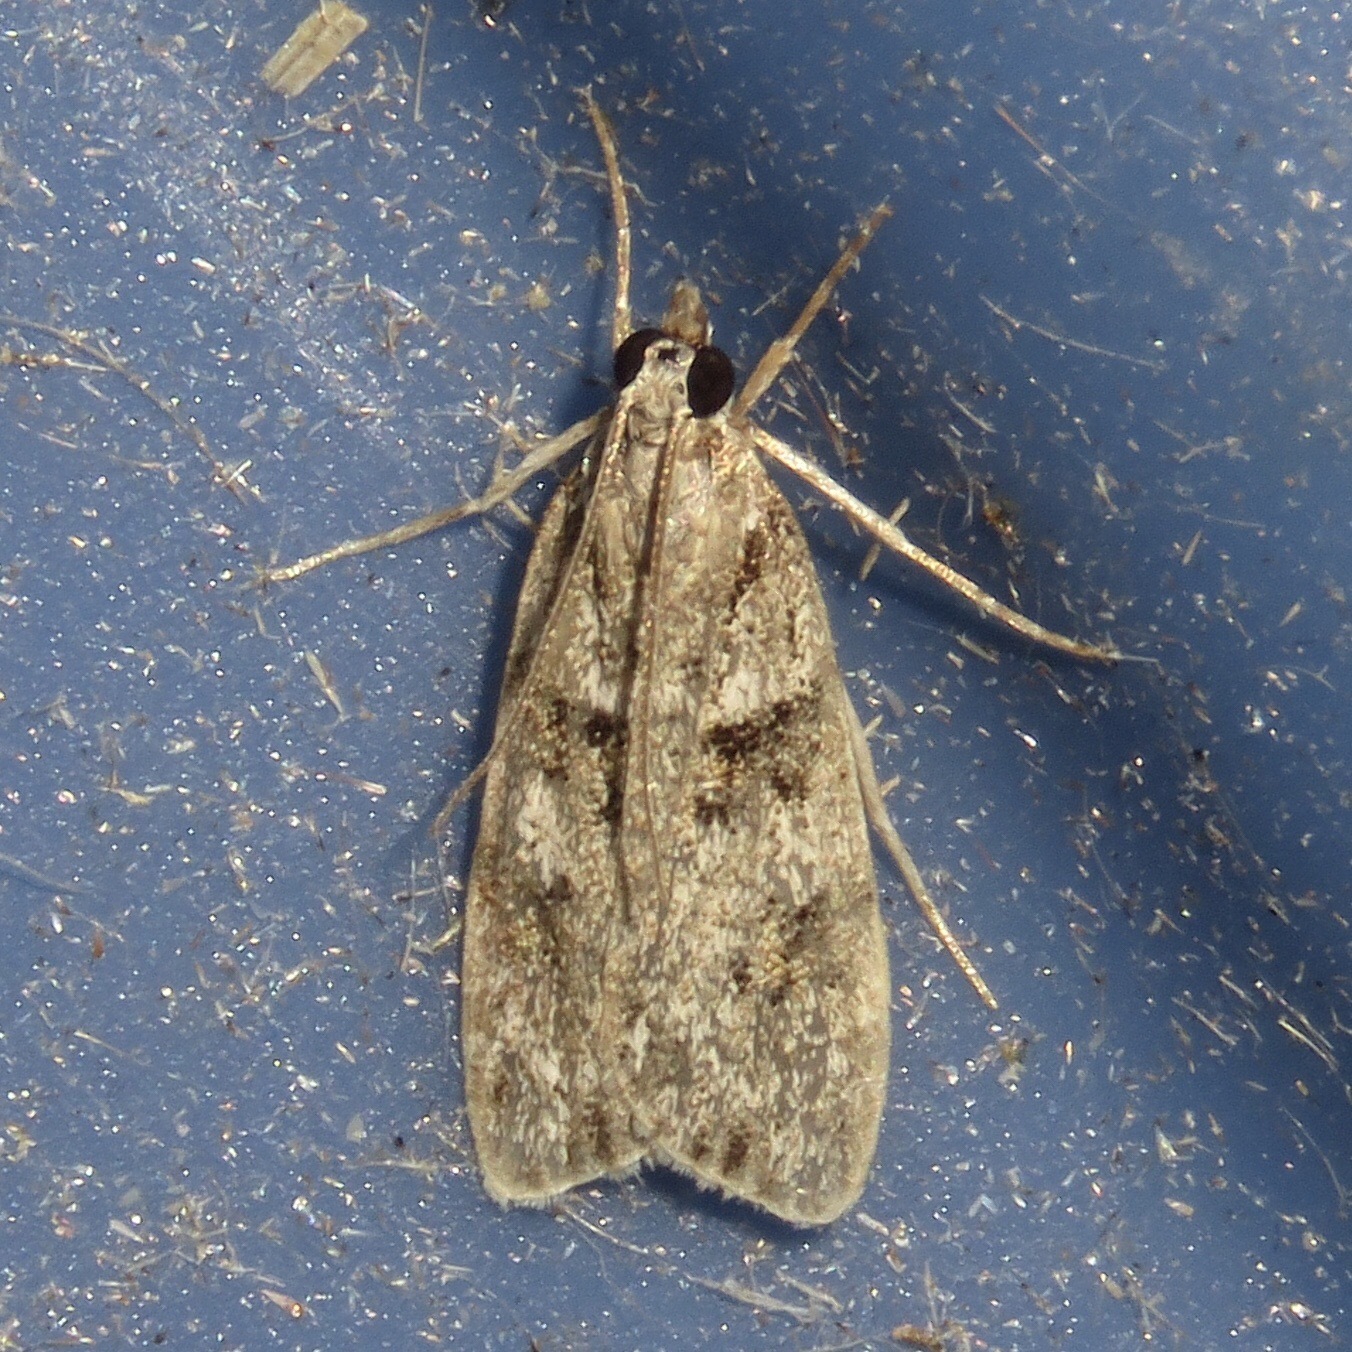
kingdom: Animalia
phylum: Arthropoda
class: Insecta
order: Lepidoptera
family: Crambidae
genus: Scoparia
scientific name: Scoparia biplagialis
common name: Double-striped scoparia moth
